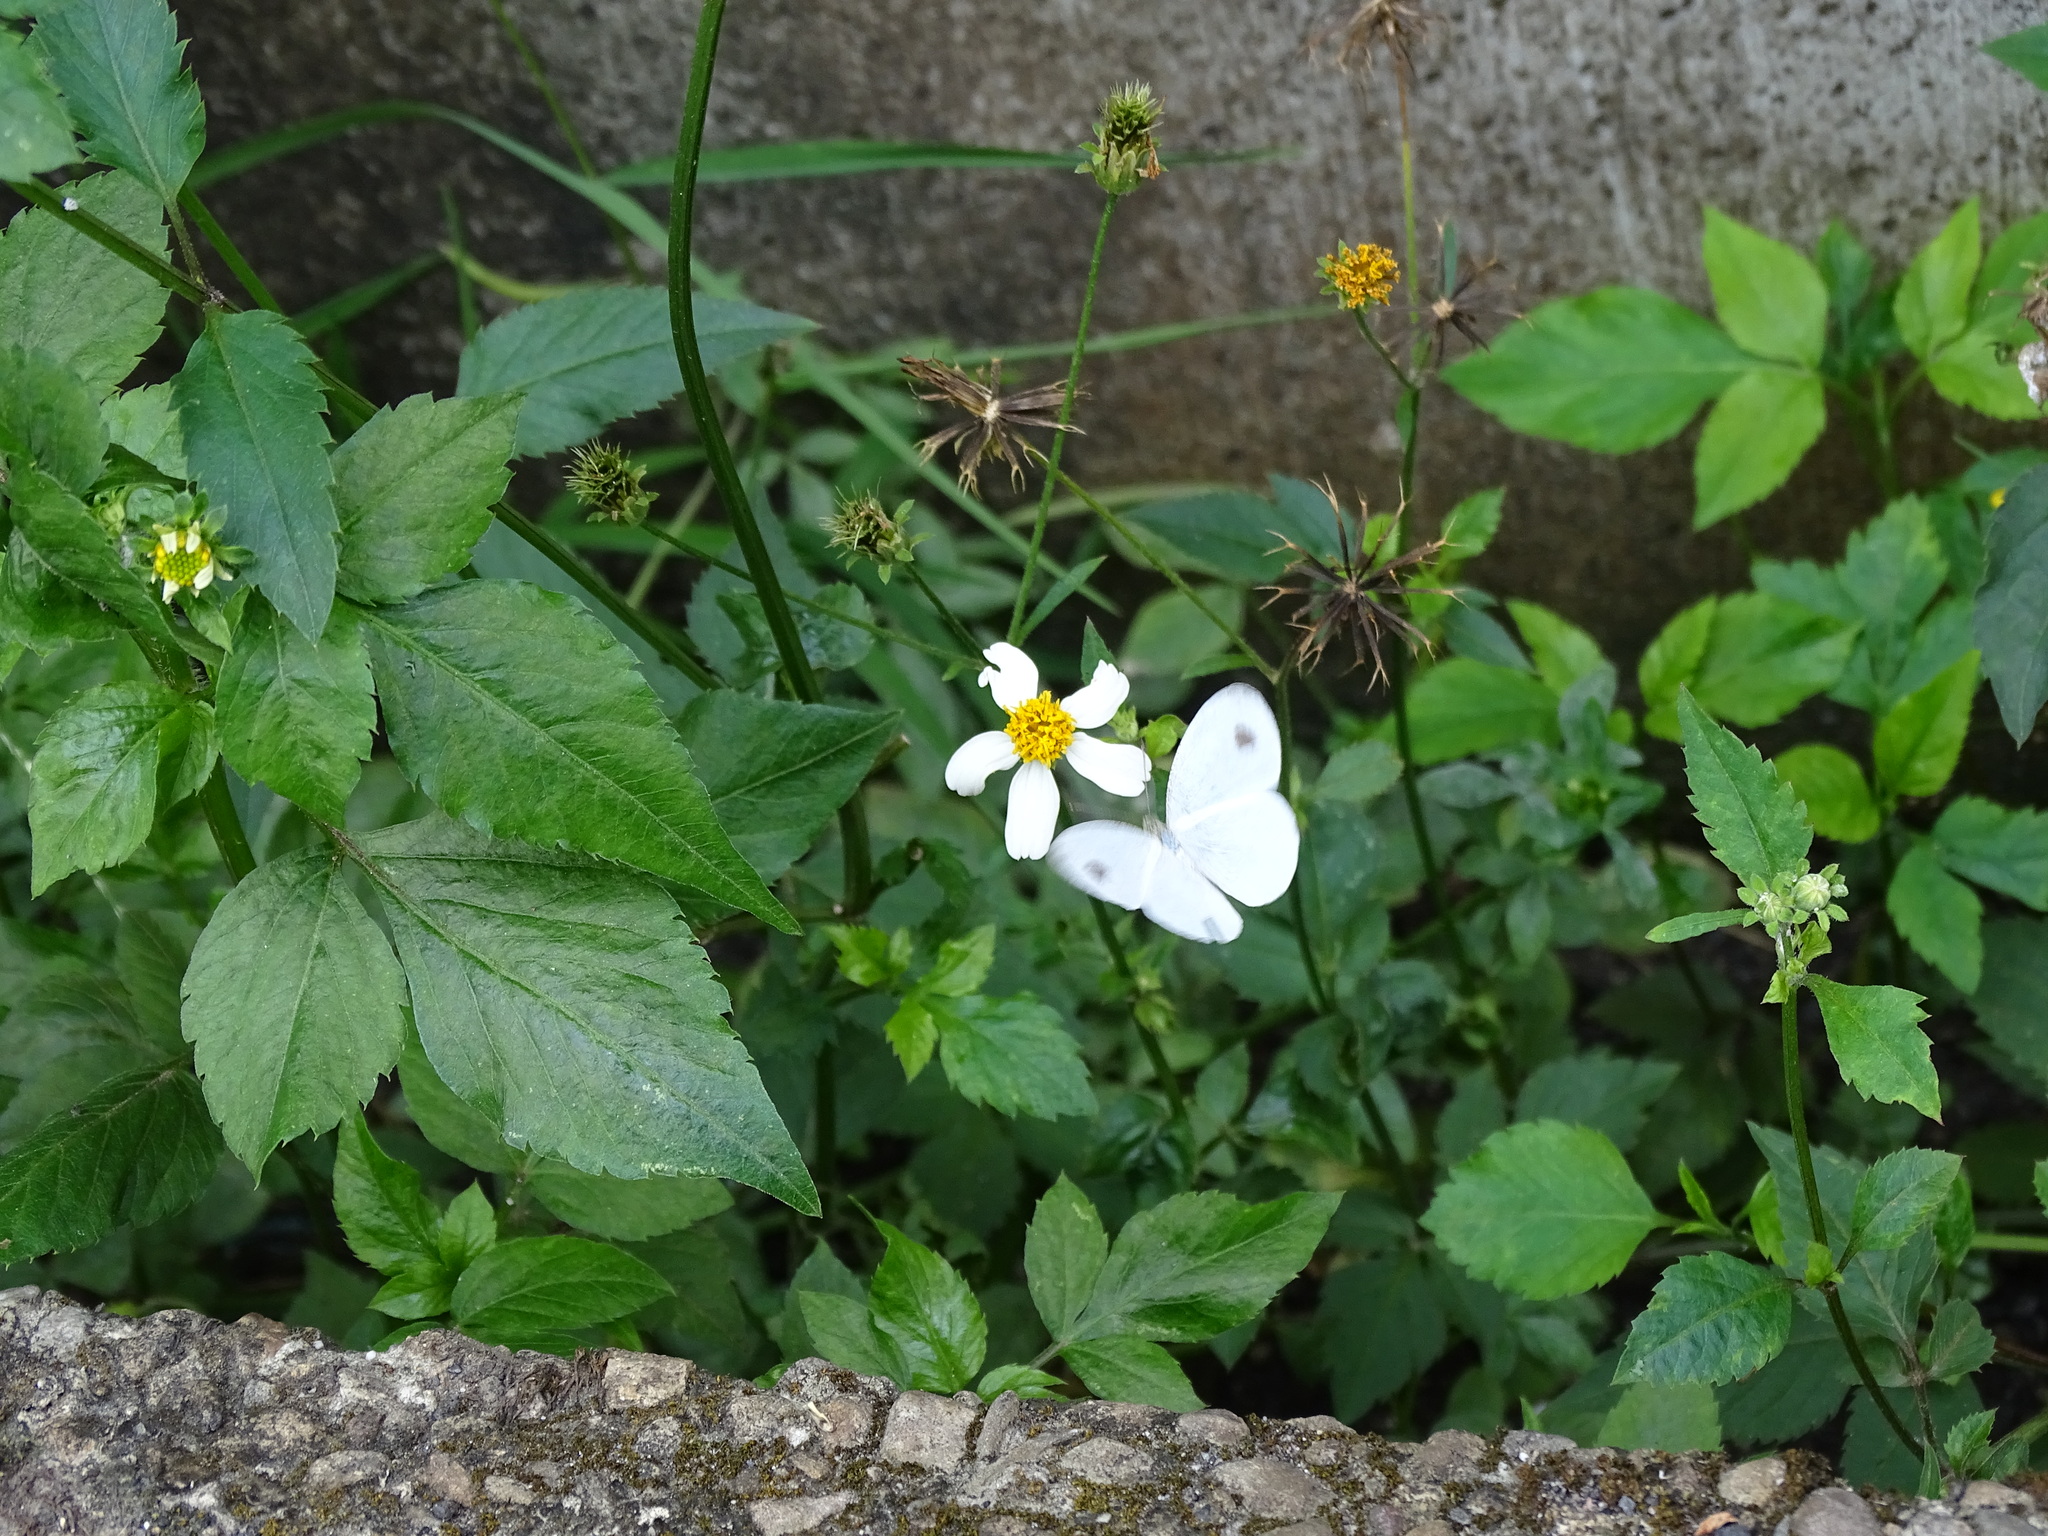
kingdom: Animalia
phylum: Arthropoda
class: Insecta
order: Lepidoptera
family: Pieridae
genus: Leptosia
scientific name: Leptosia nina
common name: Psyche
